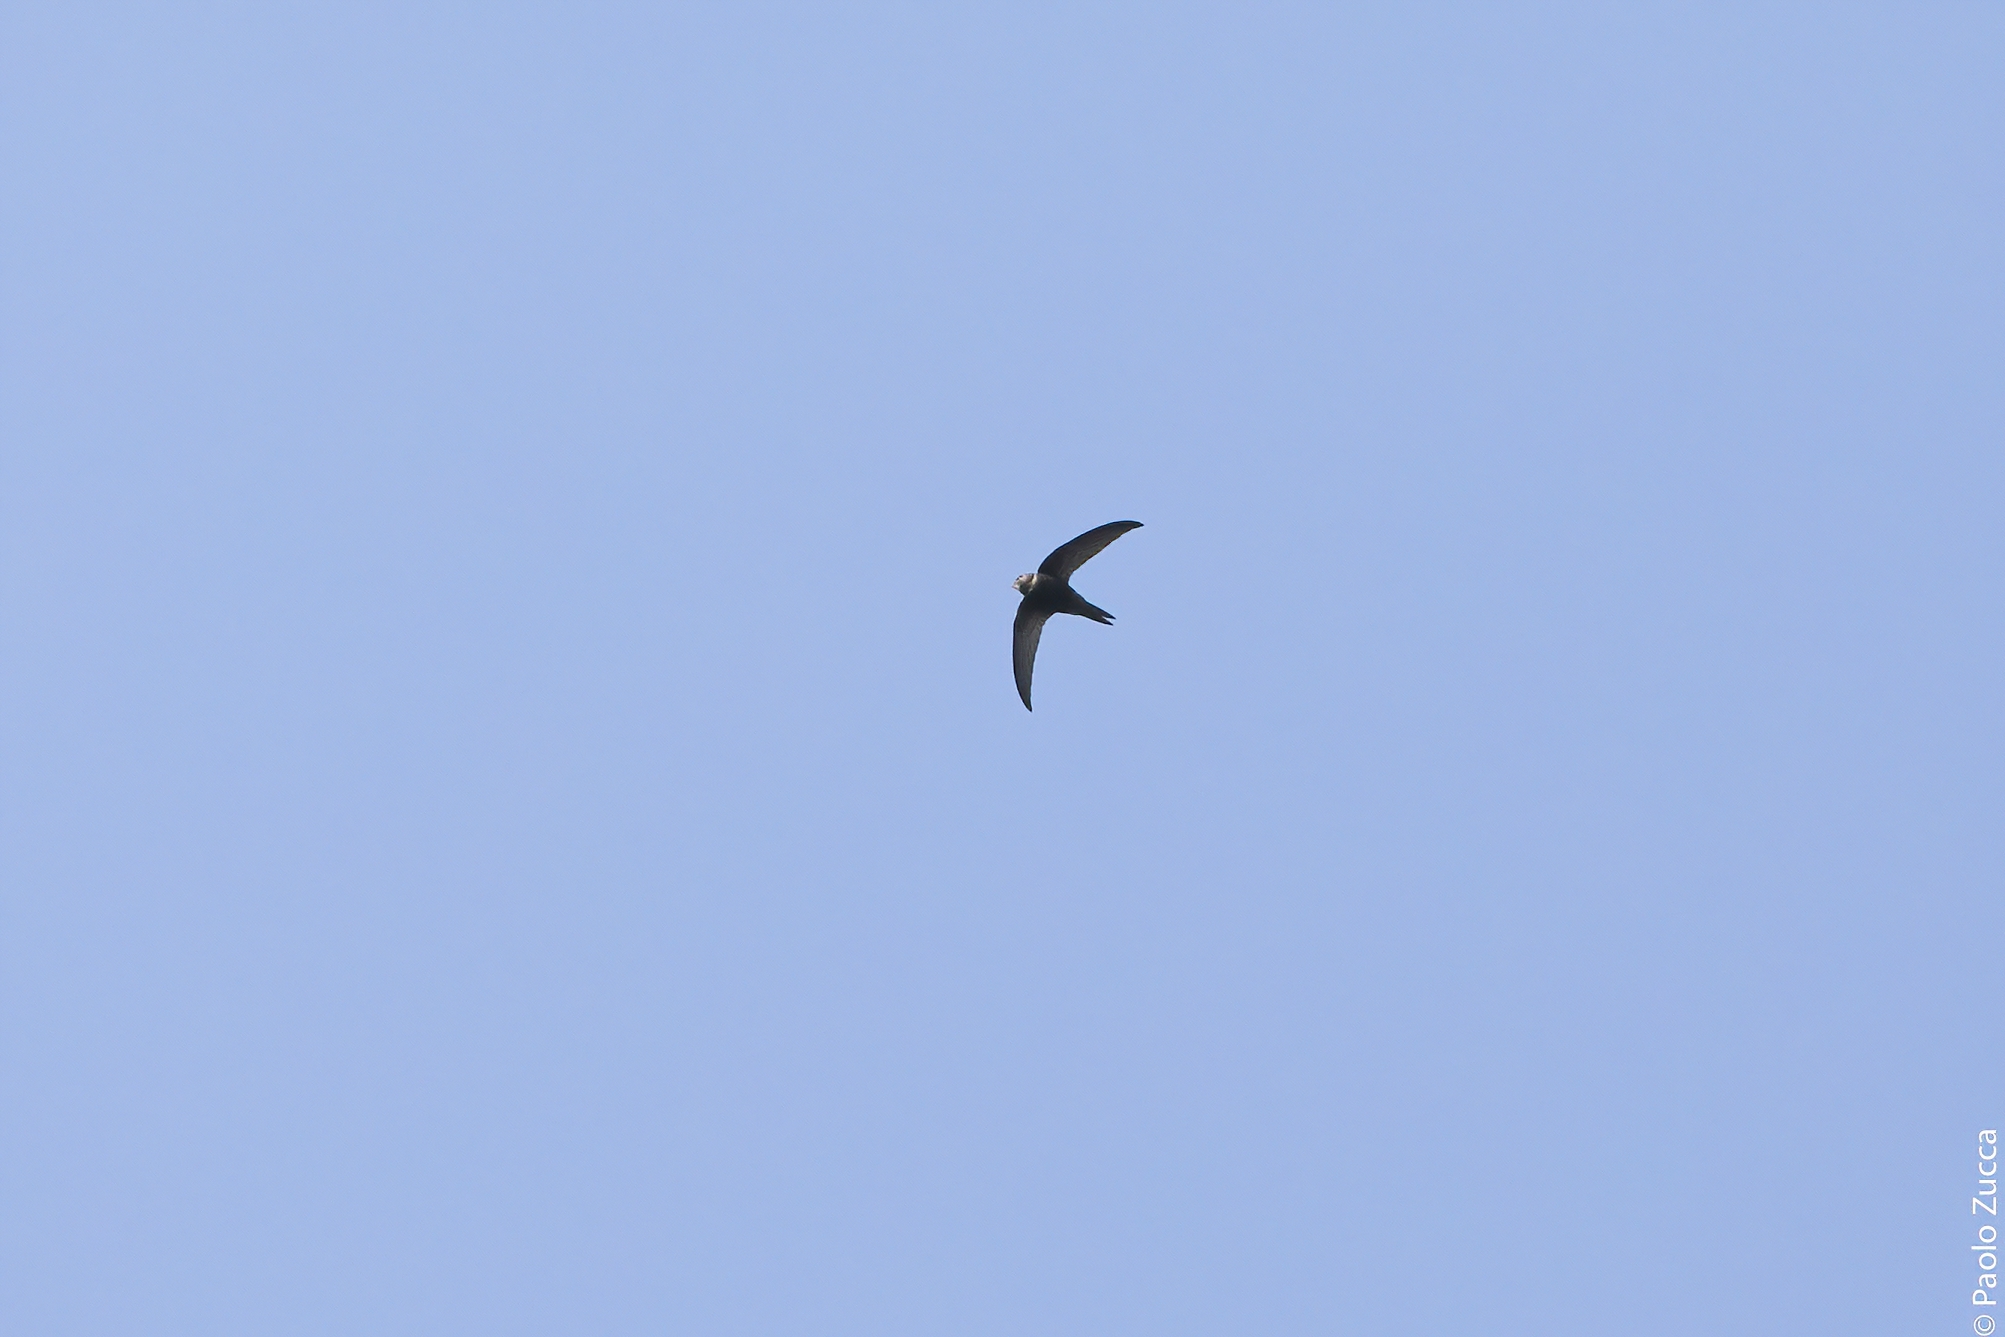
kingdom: Animalia
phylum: Chordata
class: Aves
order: Apodiformes
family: Apodidae
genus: Apus
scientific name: Apus apus
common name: Common swift
